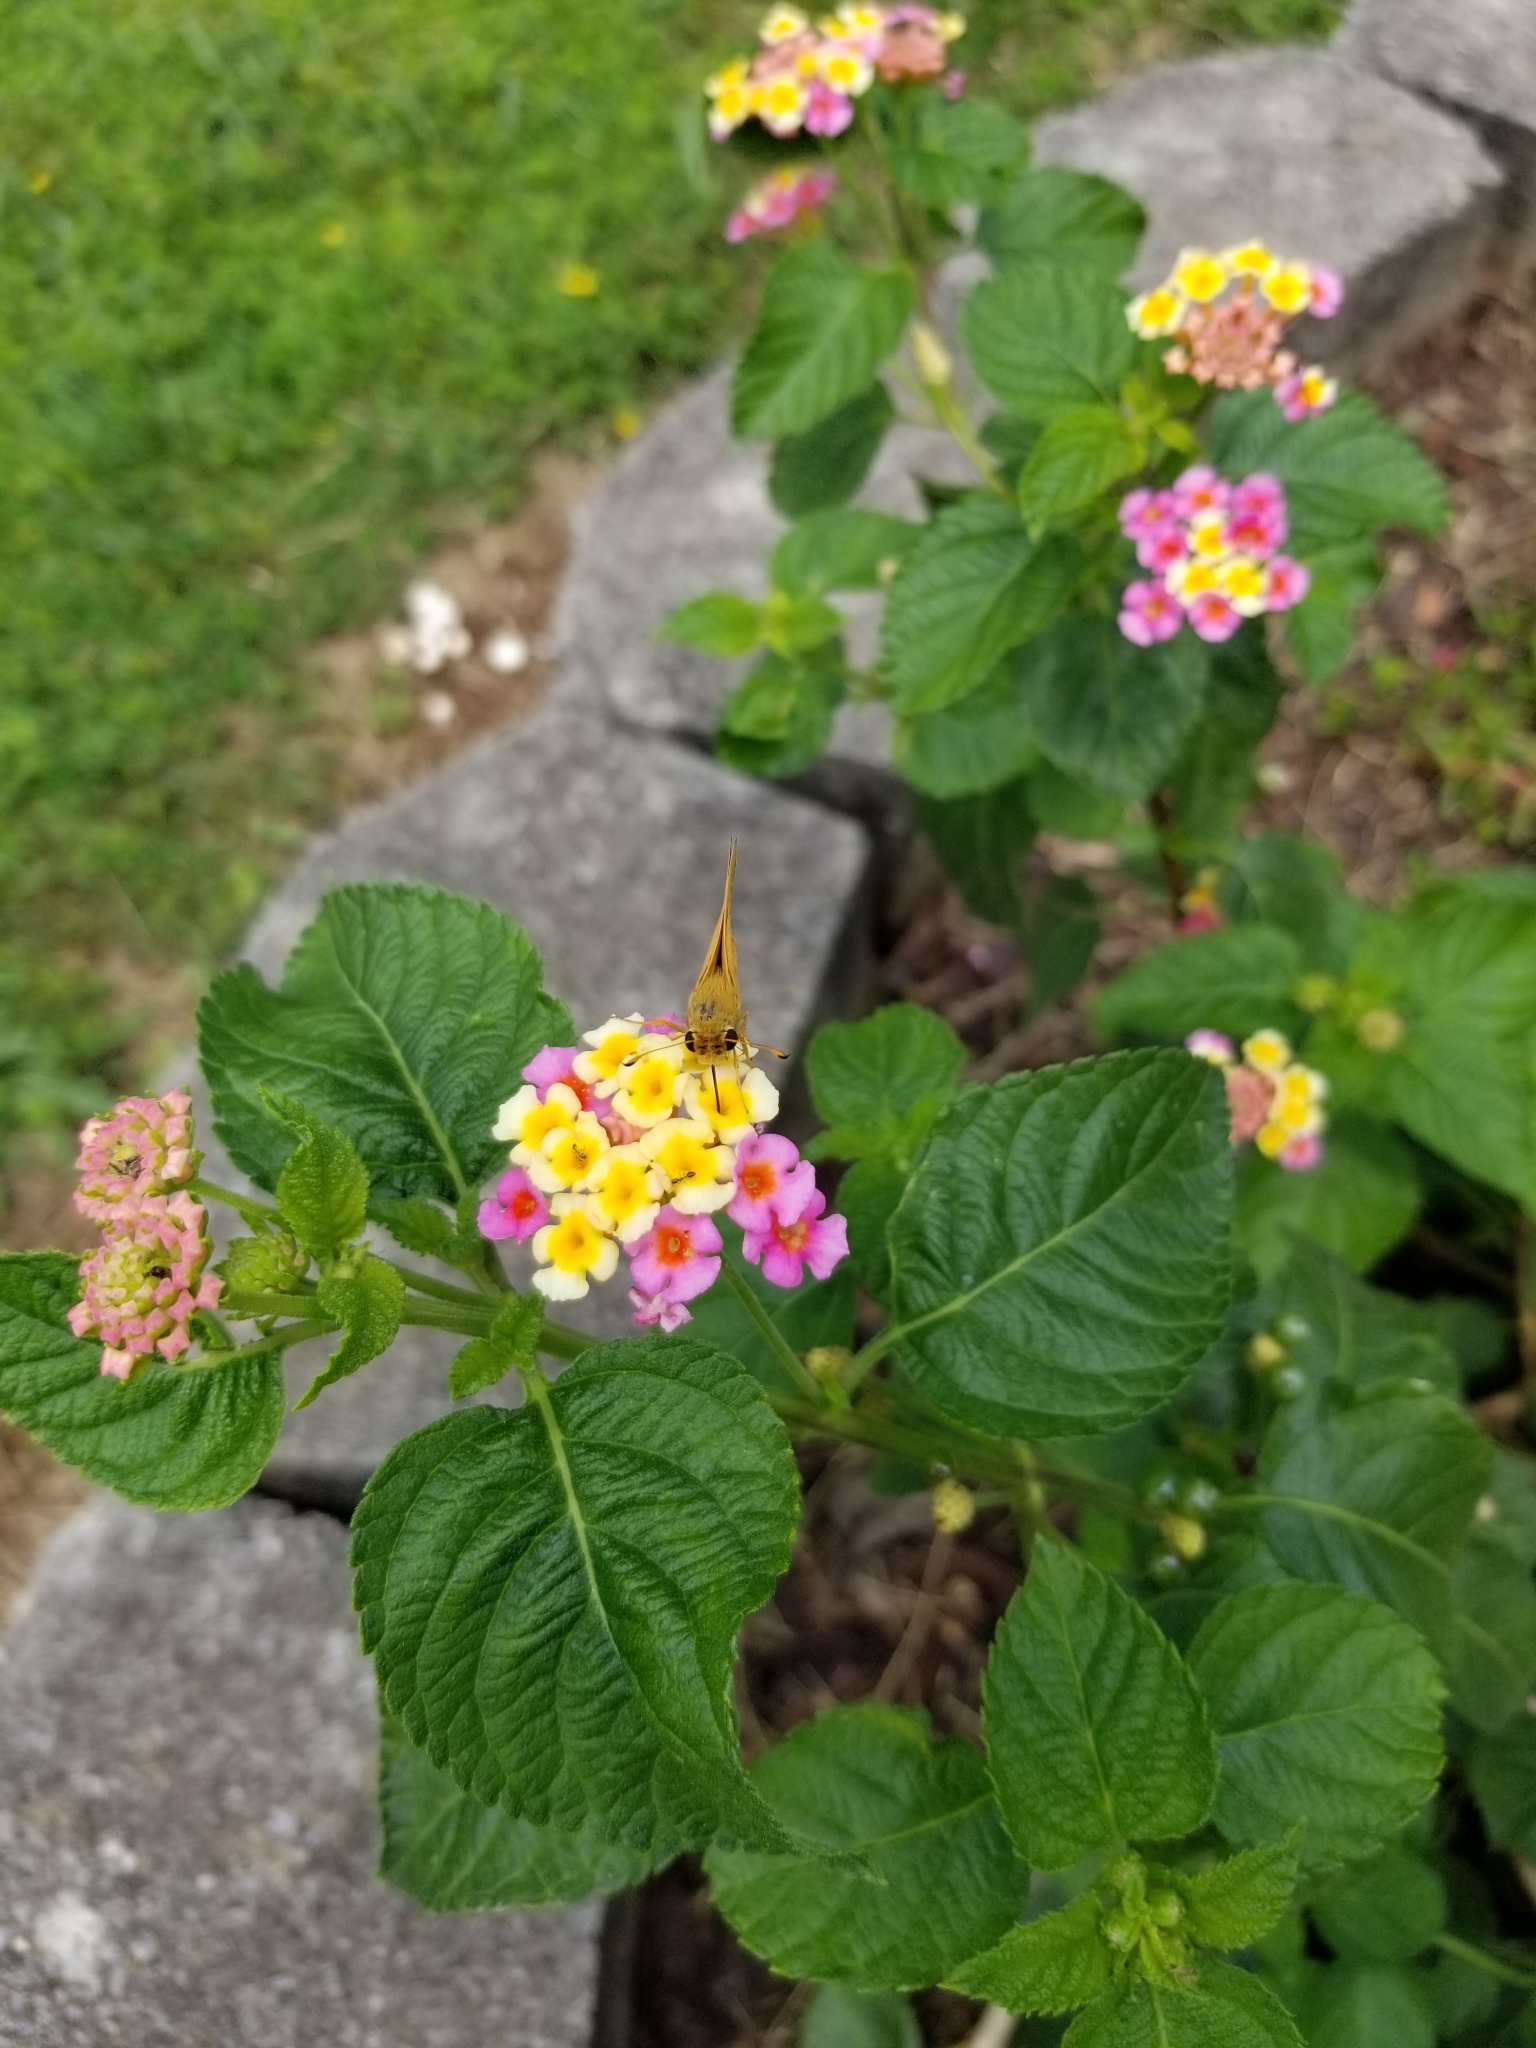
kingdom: Animalia
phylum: Arthropoda
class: Insecta
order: Lepidoptera
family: Hesperiidae
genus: Atalopedes
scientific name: Atalopedes
